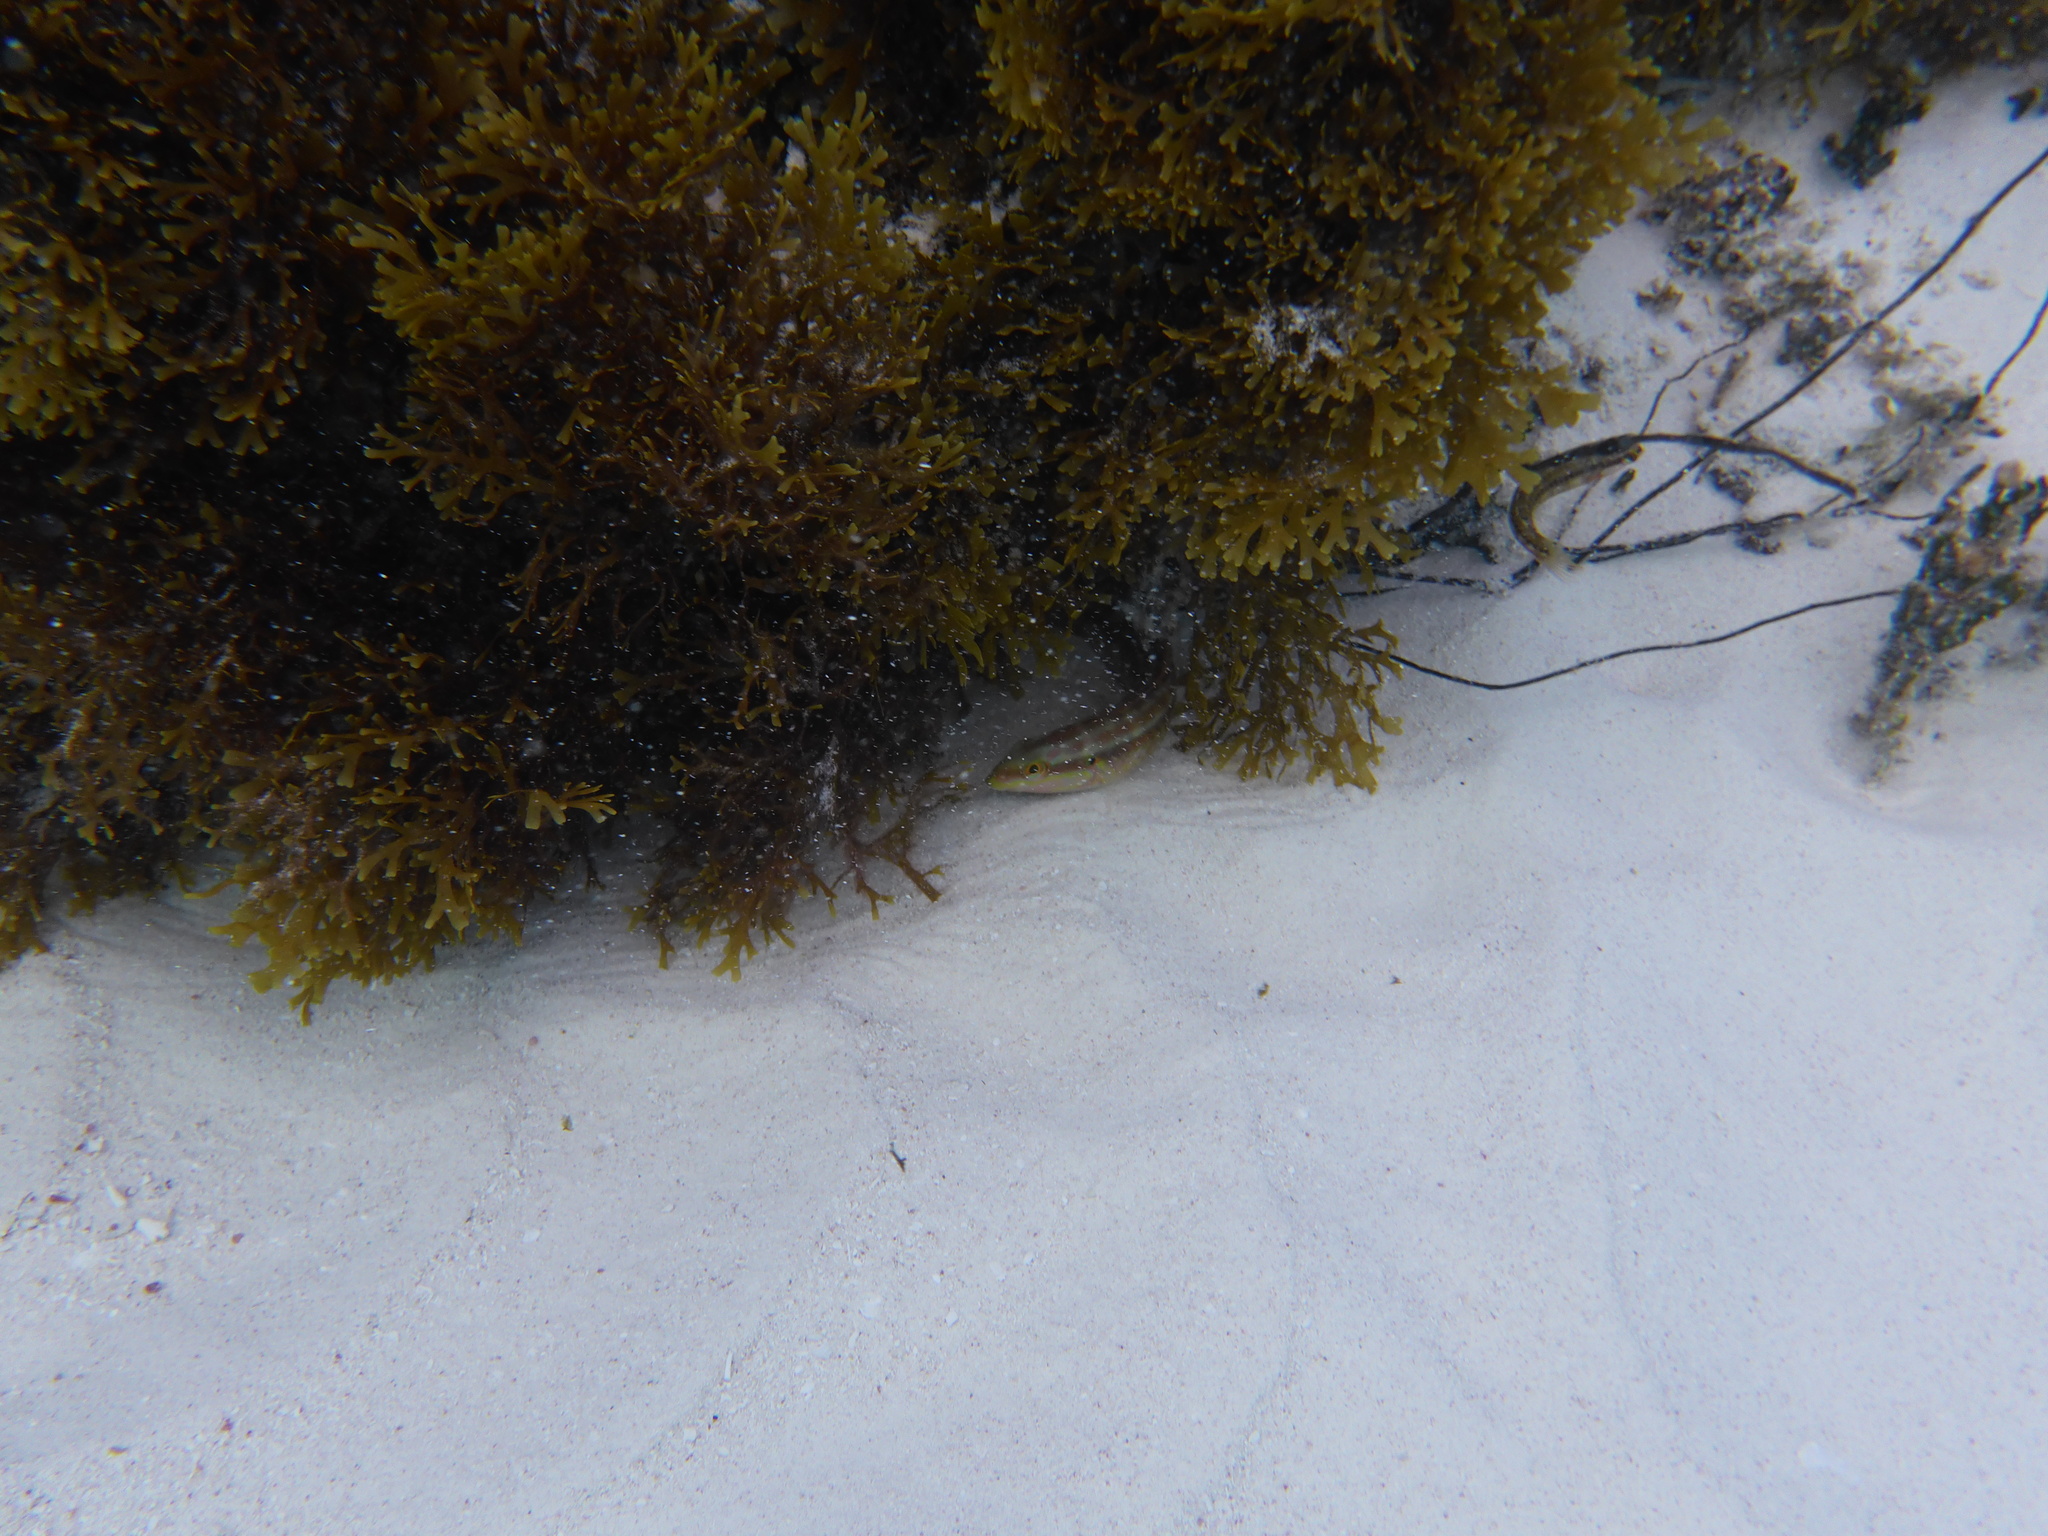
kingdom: Animalia
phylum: Chordata
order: Perciformes
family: Labridae
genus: Halichoeres
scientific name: Halichoeres bivittatus
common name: Slippery dick
